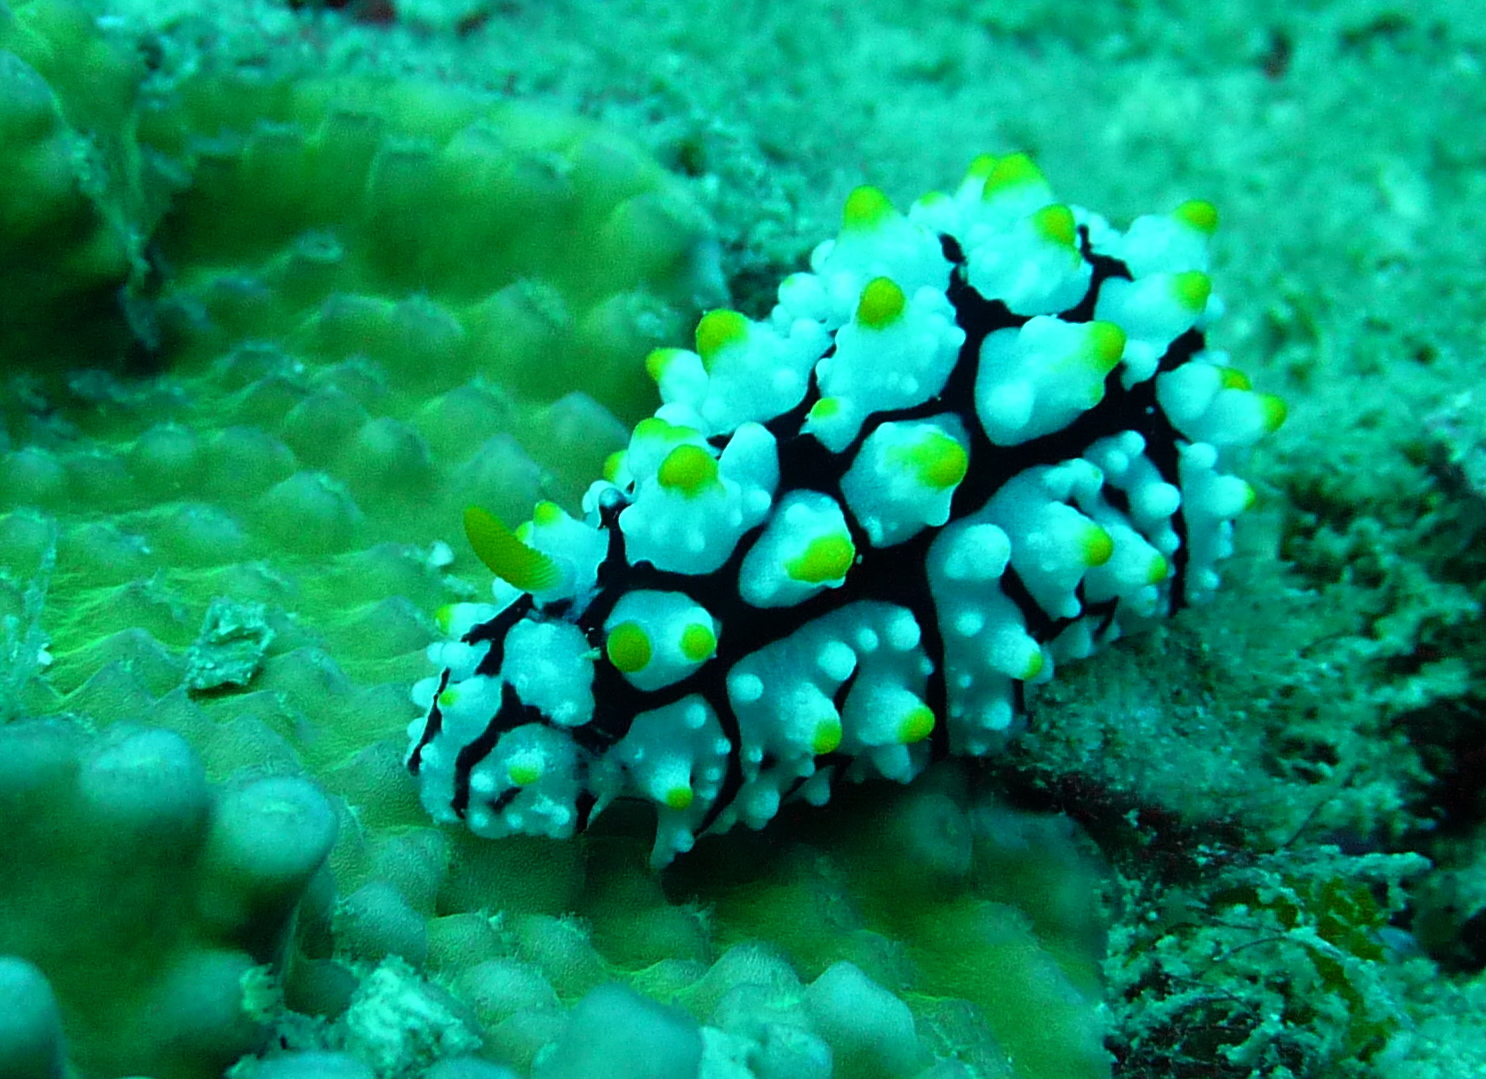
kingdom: Animalia
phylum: Mollusca
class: Gastropoda
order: Nudibranchia
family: Phyllidiidae
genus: Phyllidia
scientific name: Phyllidia elegans
